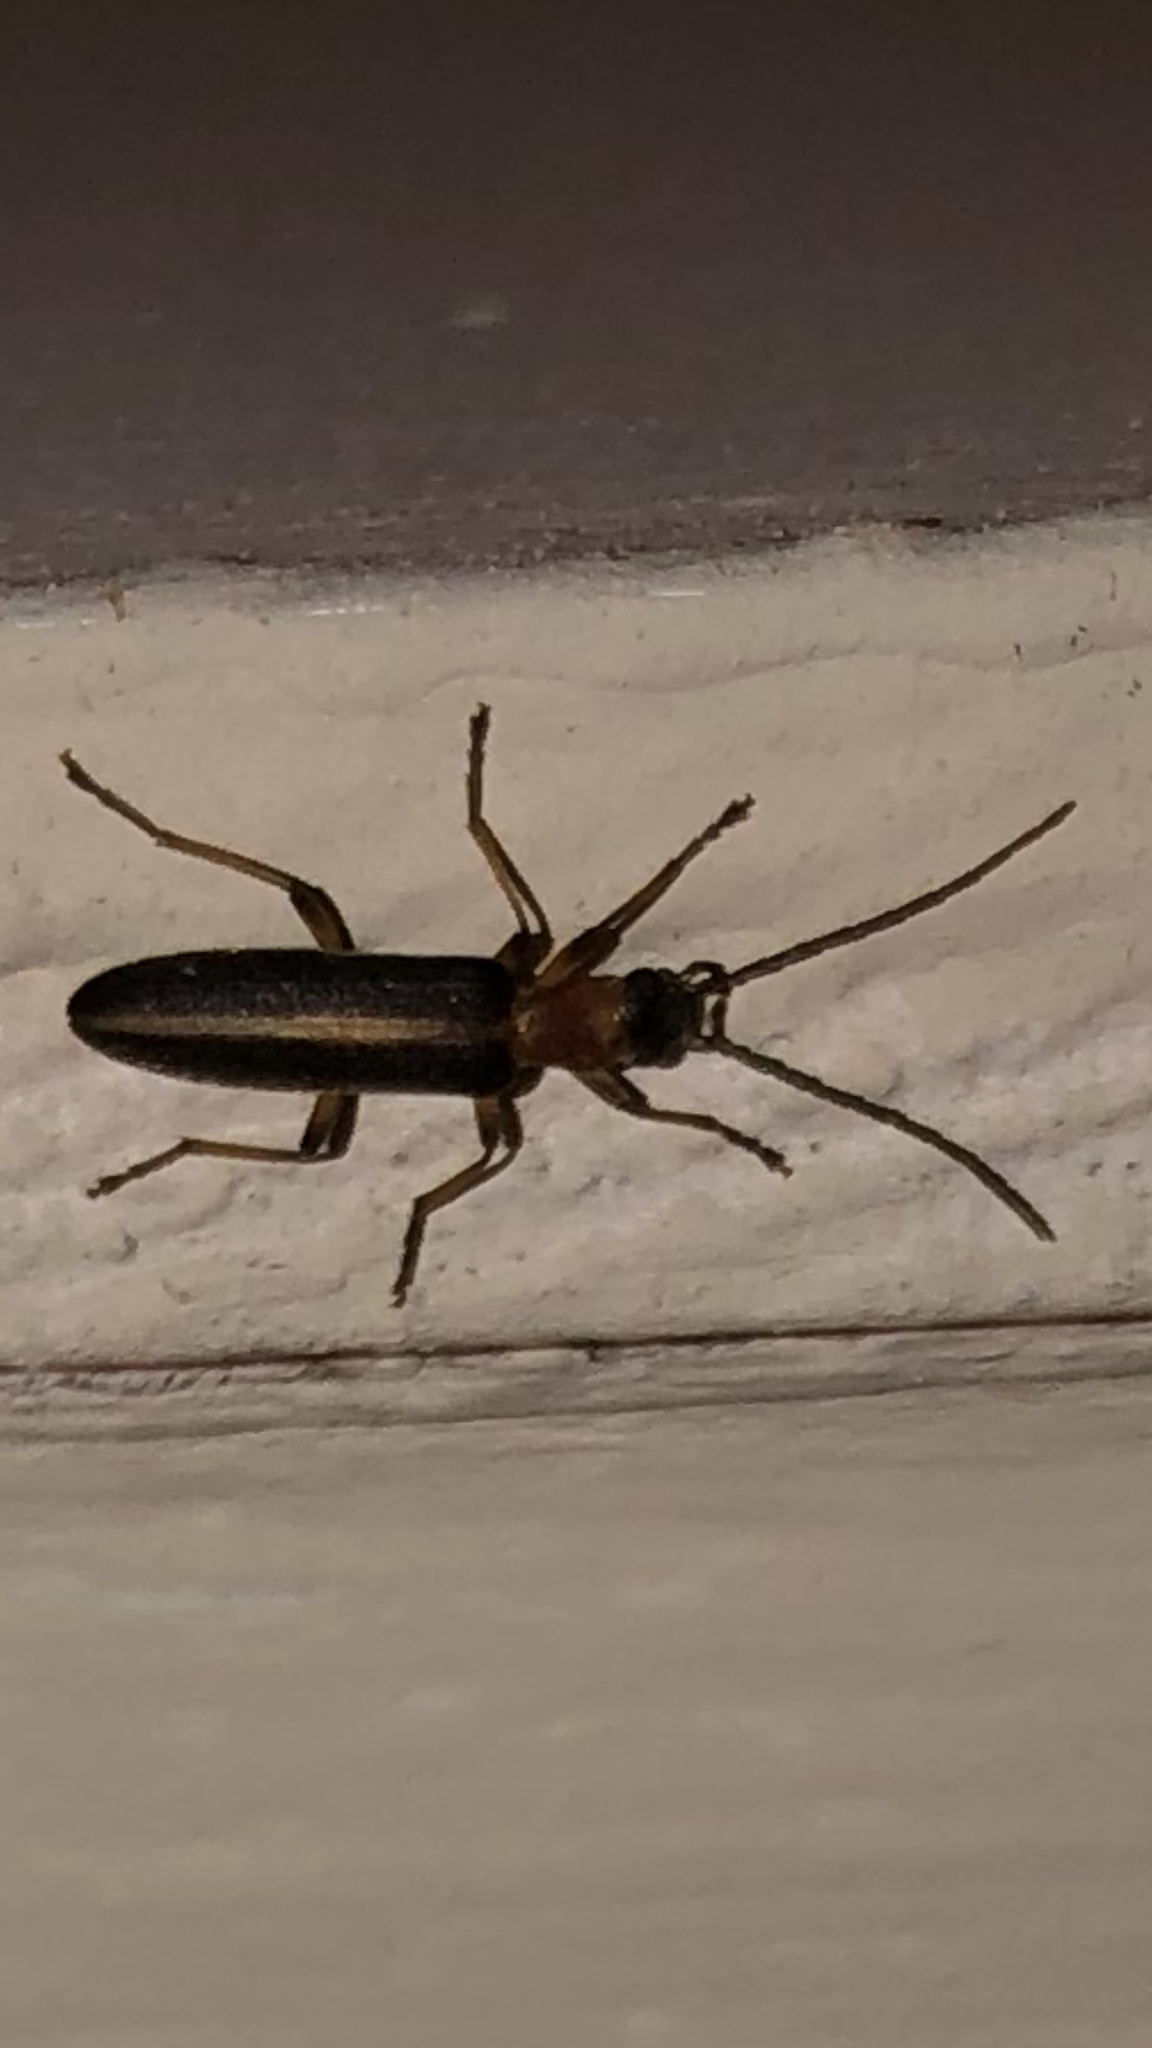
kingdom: Animalia
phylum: Arthropoda
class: Insecta
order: Coleoptera
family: Oedemeridae
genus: Oxycopis
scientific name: Oxycopis mimetica
